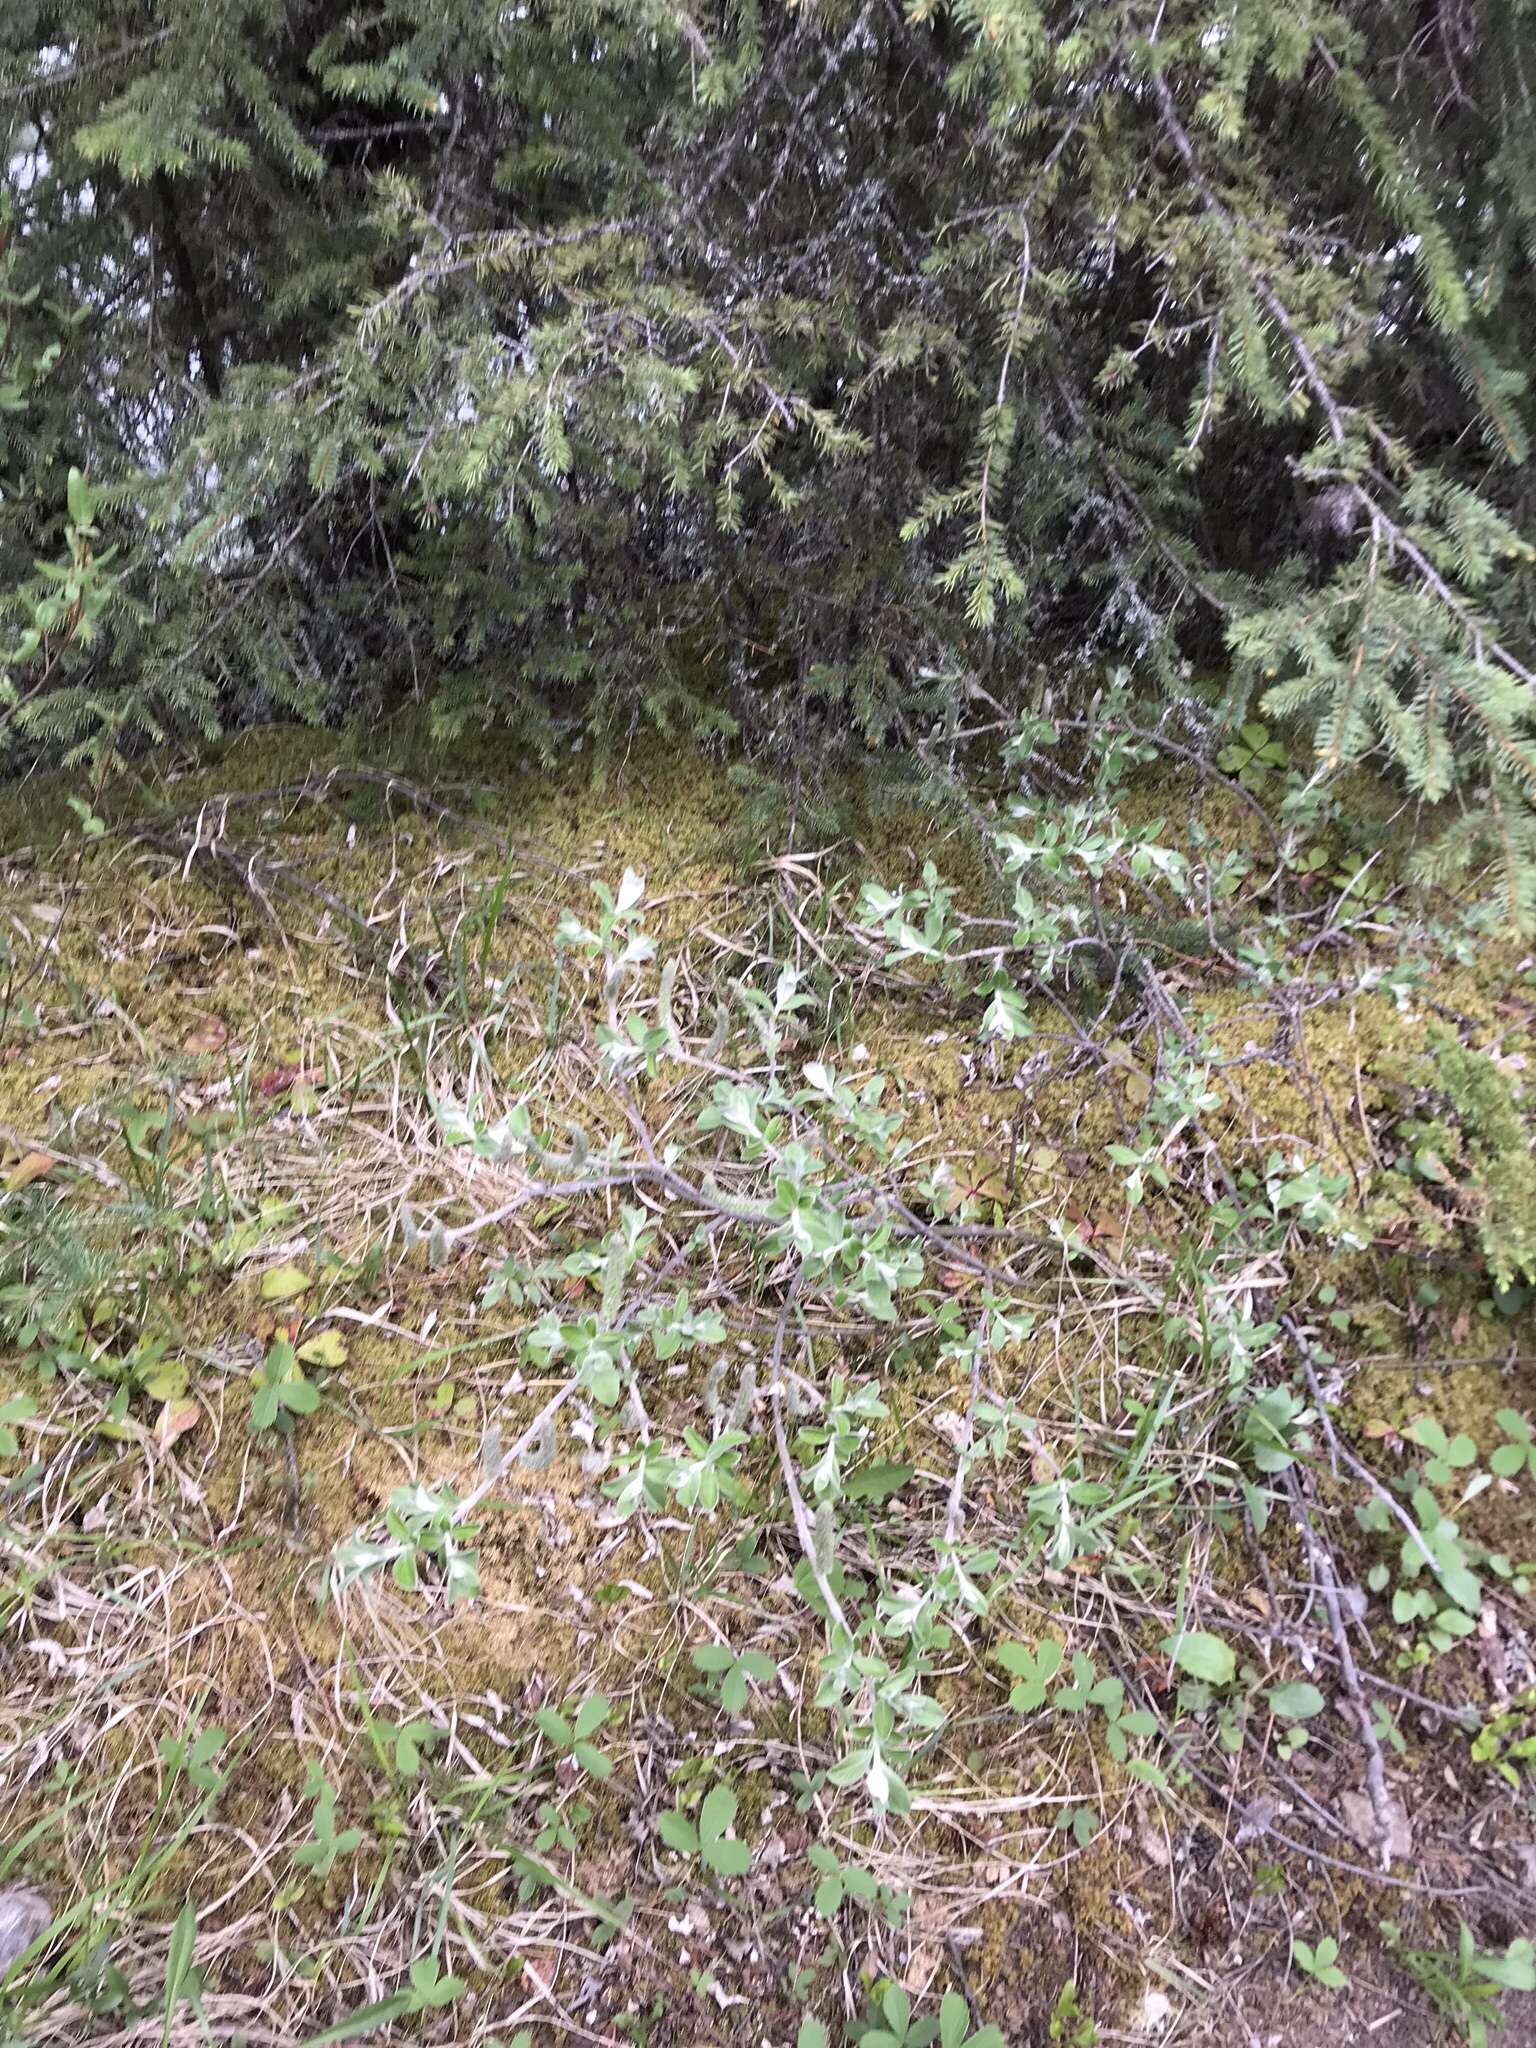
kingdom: Plantae
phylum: Tracheophyta
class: Magnoliopsida
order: Malpighiales
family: Salicaceae
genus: Salix
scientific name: Salix barrattiana
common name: Barratt's willow
